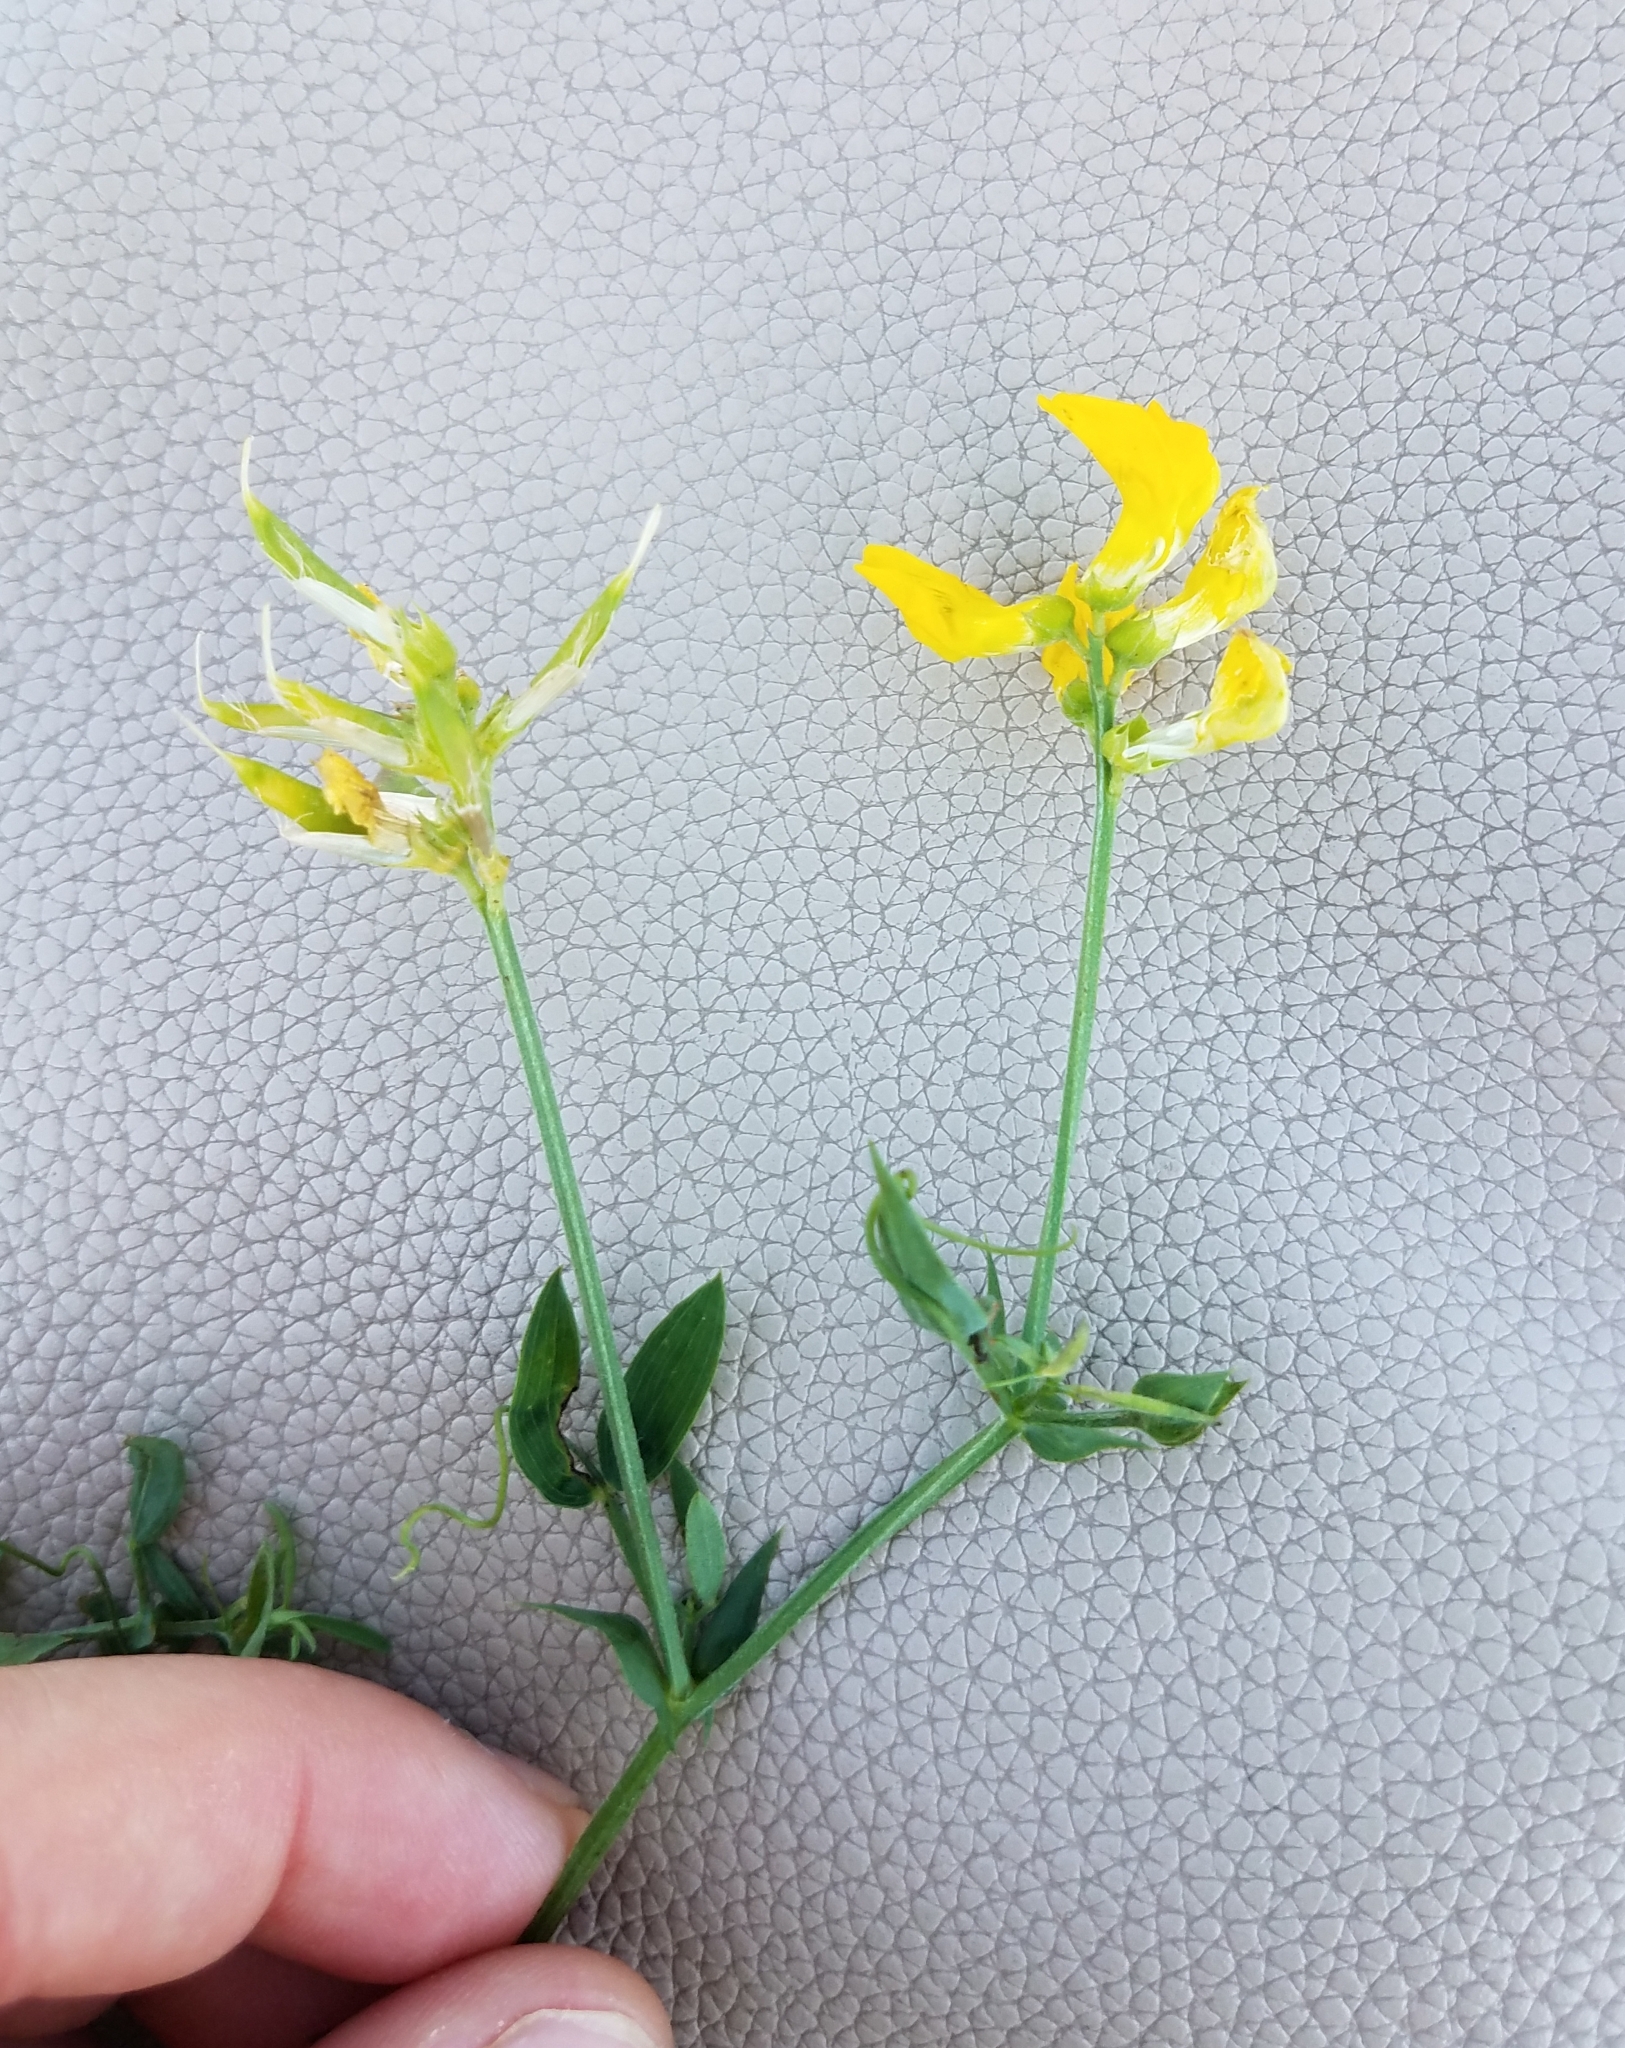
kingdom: Plantae
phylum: Tracheophyta
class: Magnoliopsida
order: Fabales
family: Fabaceae
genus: Lathyrus
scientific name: Lathyrus pratensis
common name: Meadow vetchling
